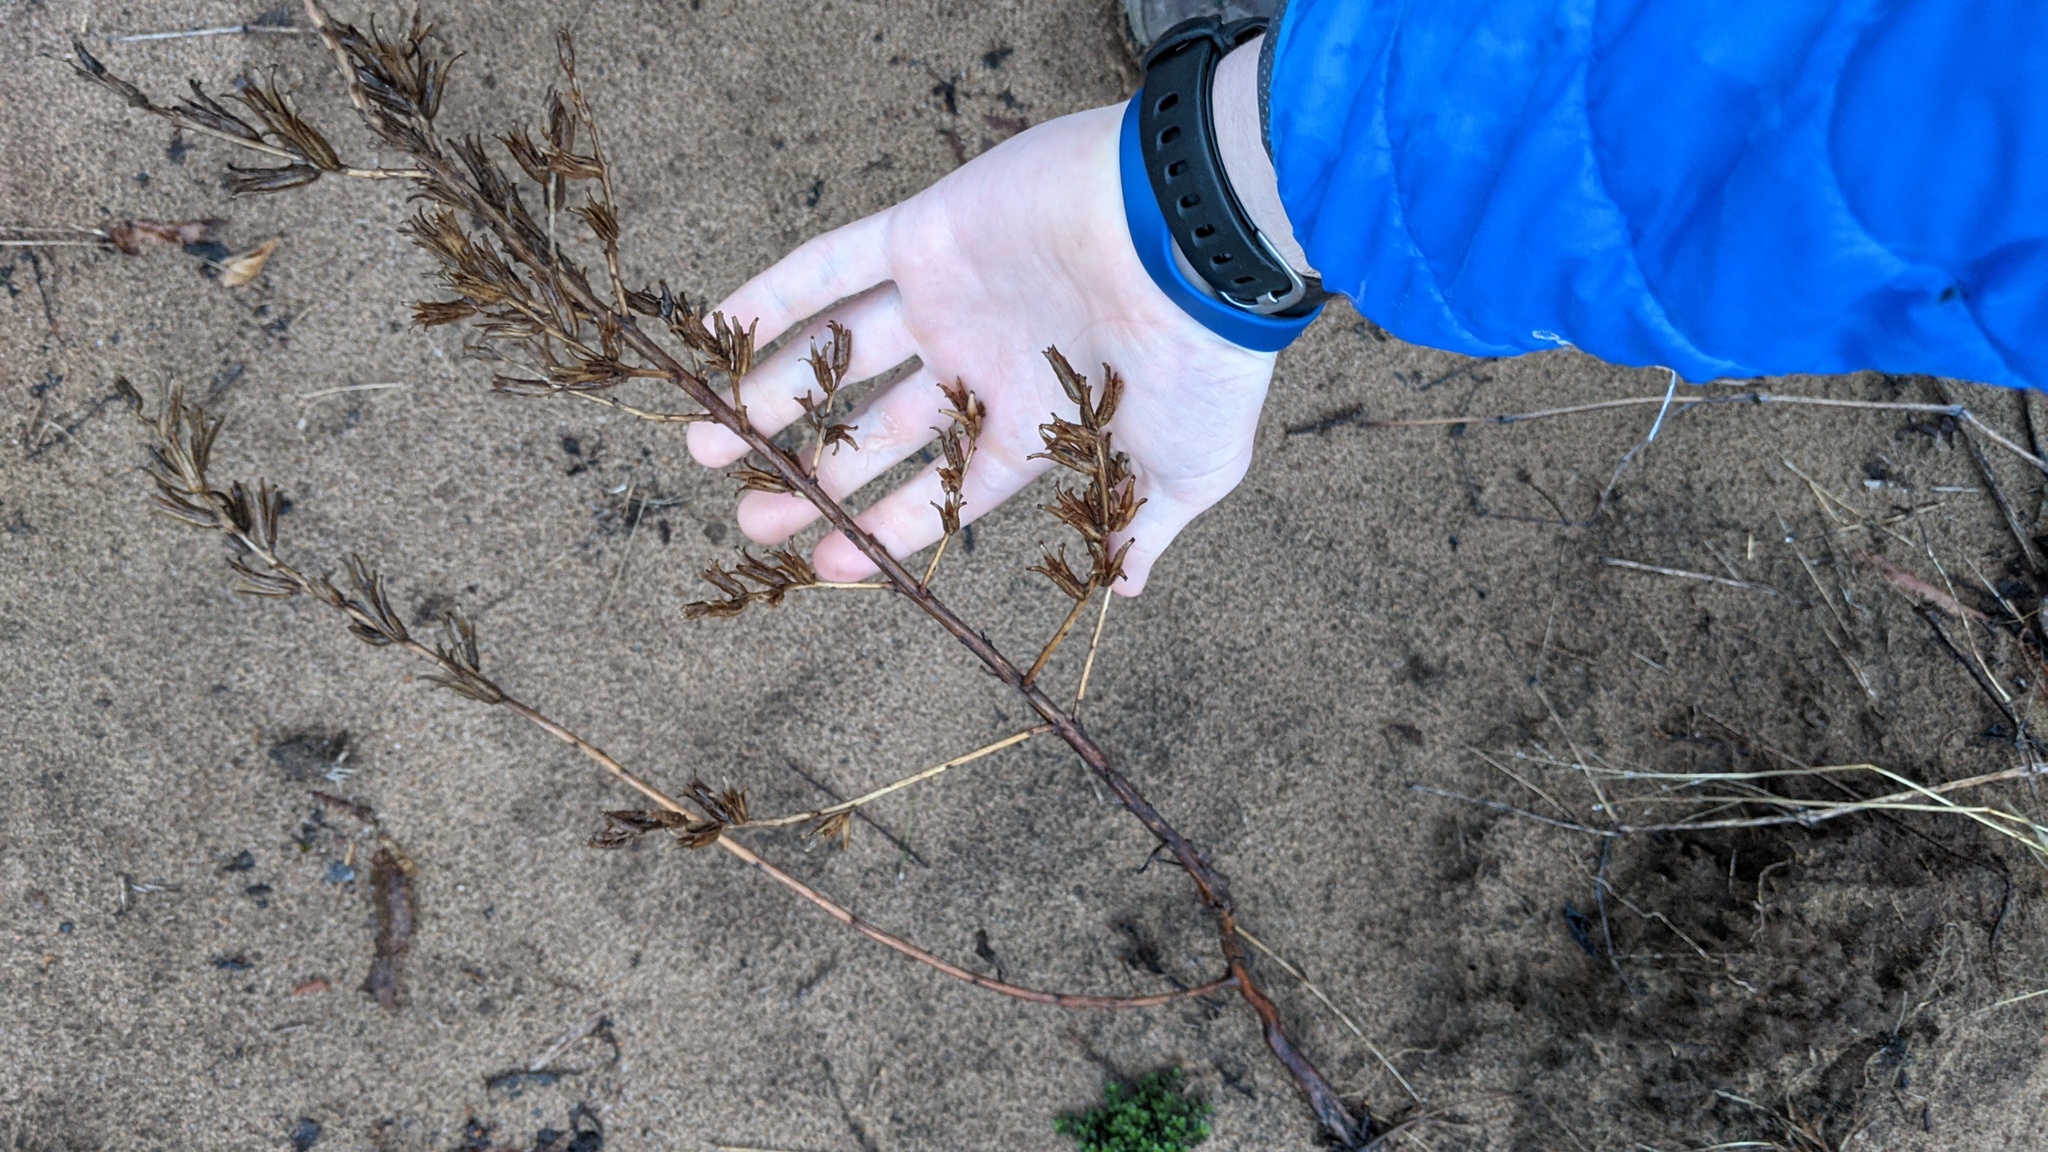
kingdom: Plantae
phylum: Tracheophyta
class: Magnoliopsida
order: Myrtales
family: Onagraceae
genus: Oenothera
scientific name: Oenothera biennis
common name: Common evening-primrose
